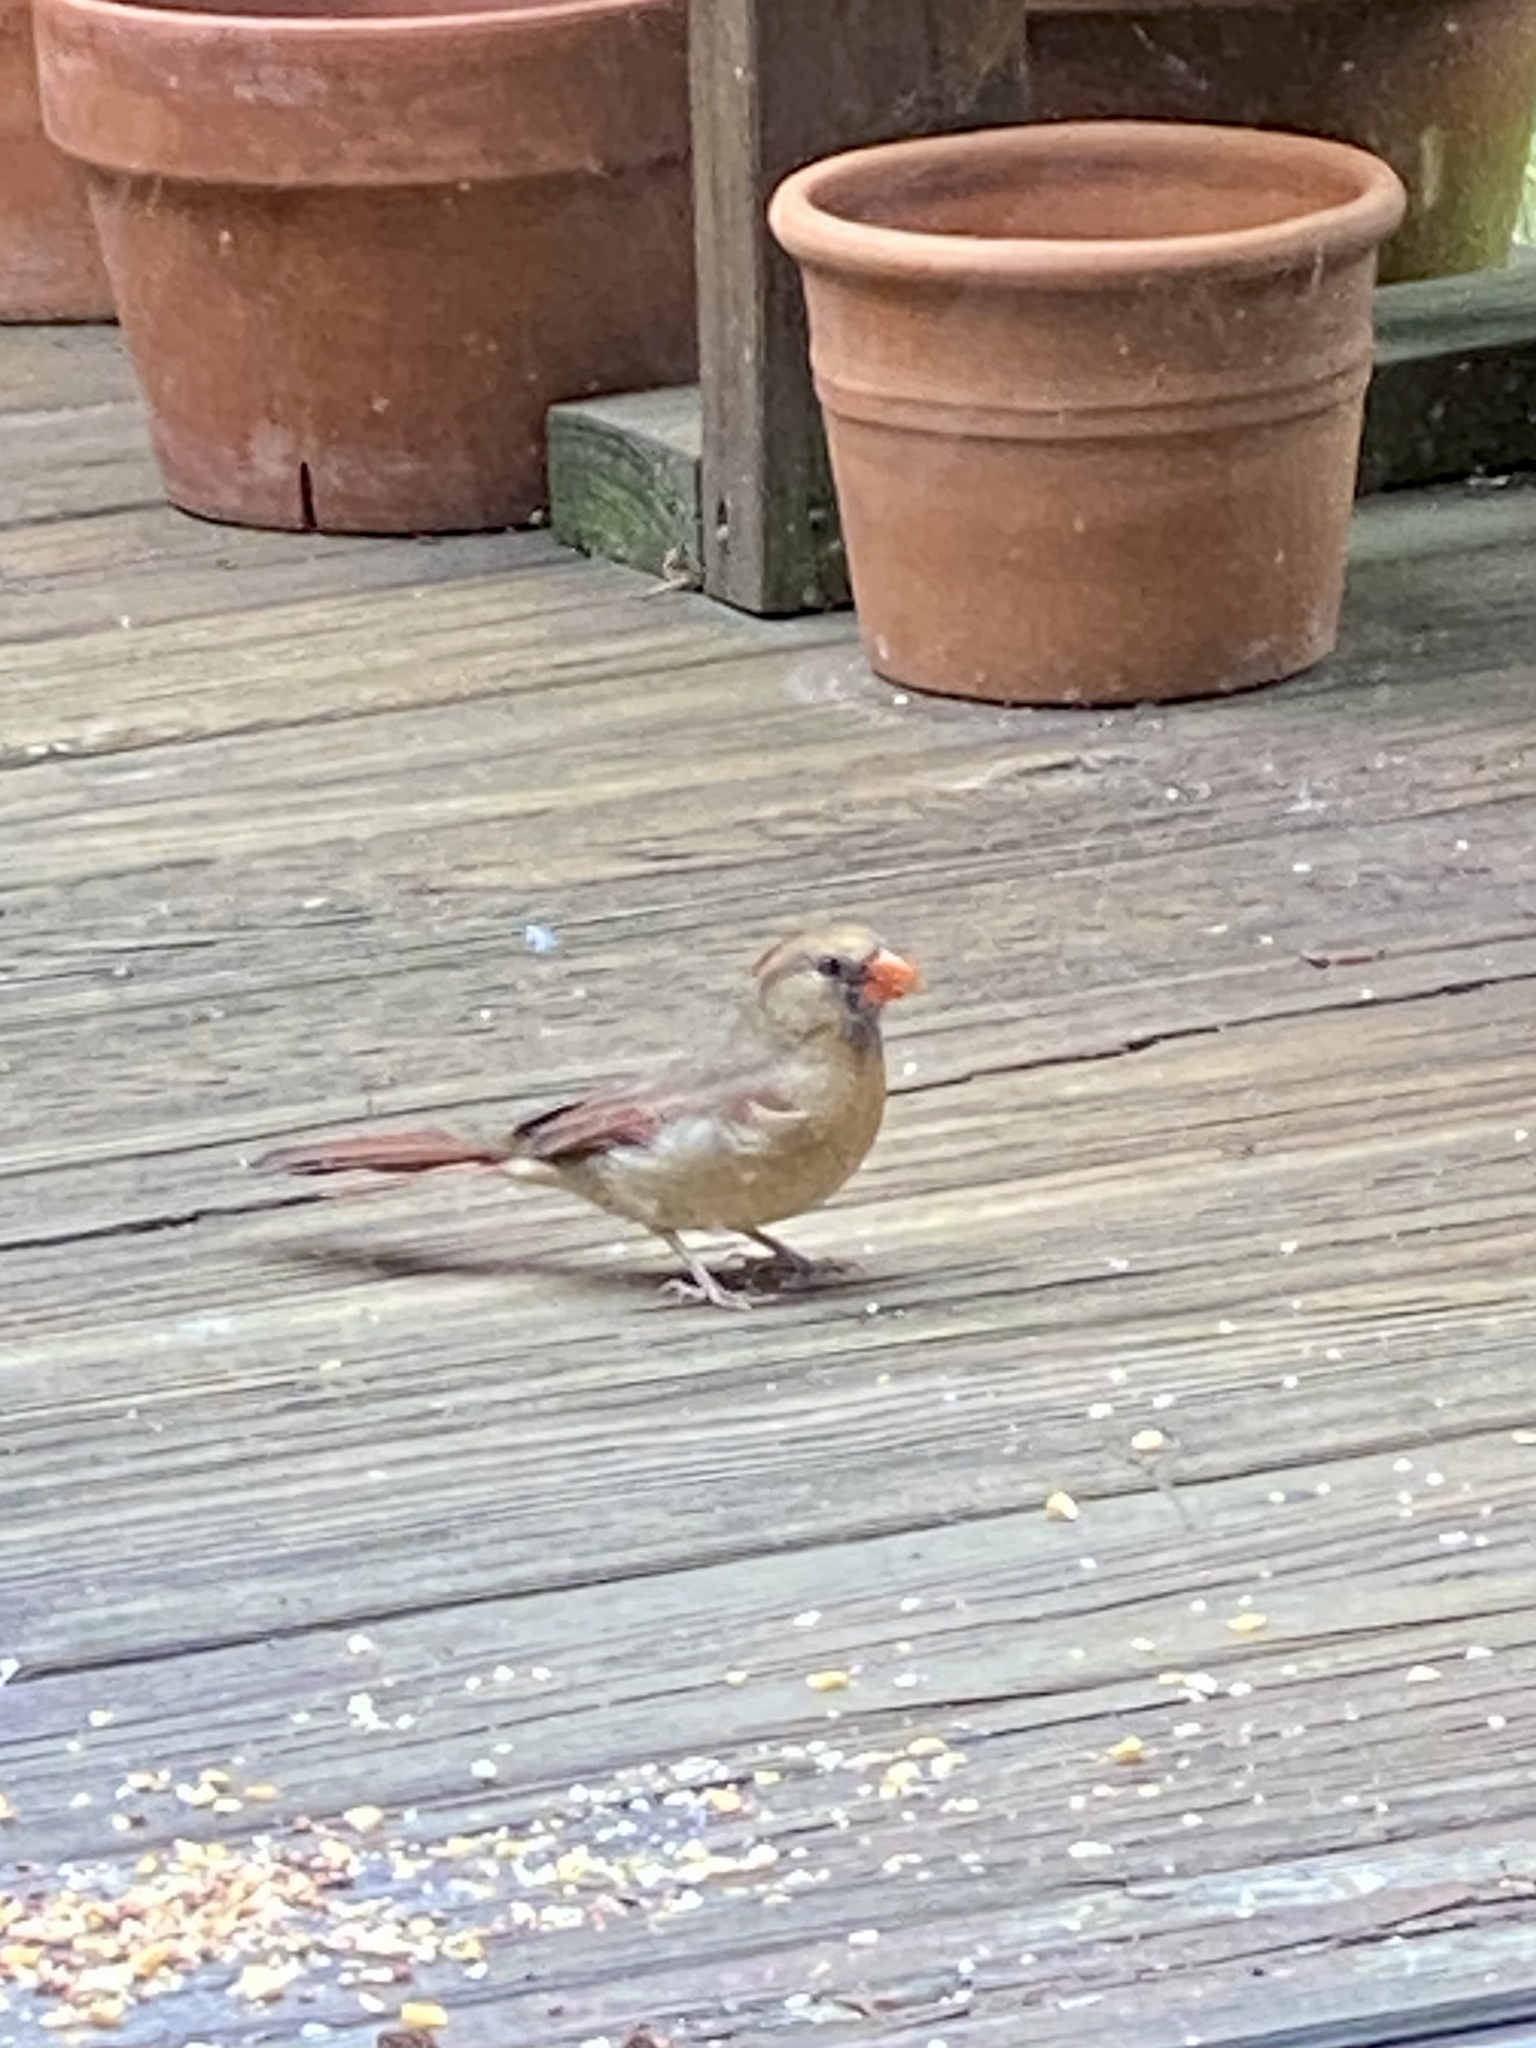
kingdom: Animalia
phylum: Chordata
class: Aves
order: Passeriformes
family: Cardinalidae
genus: Cardinalis
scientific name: Cardinalis cardinalis
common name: Northern cardinal
